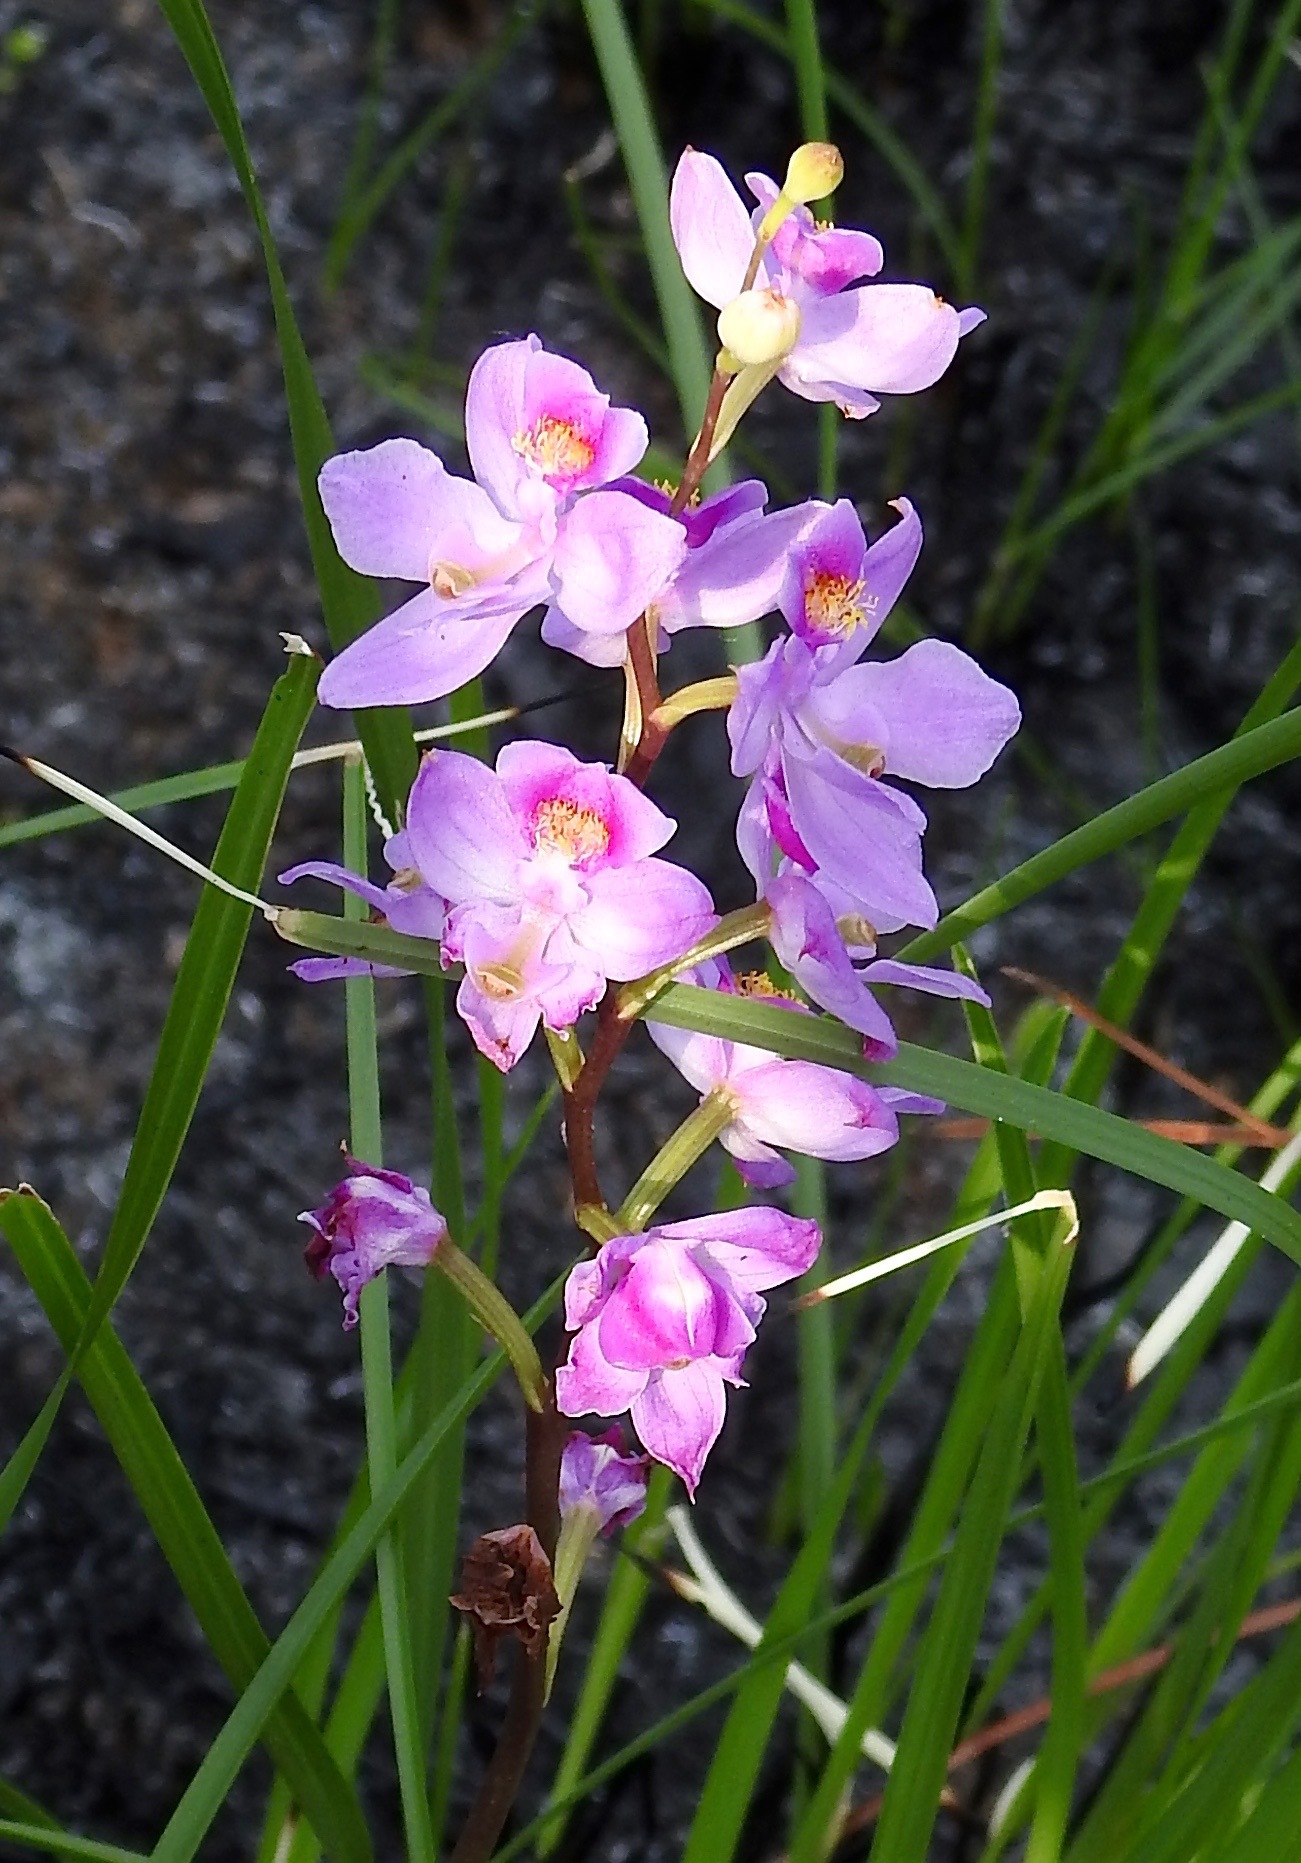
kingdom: Plantae
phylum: Tracheophyta
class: Liliopsida
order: Asparagales
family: Orchidaceae
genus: Calopogon
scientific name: Calopogon multiflorus
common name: Many-flowered grass-pink orchid
